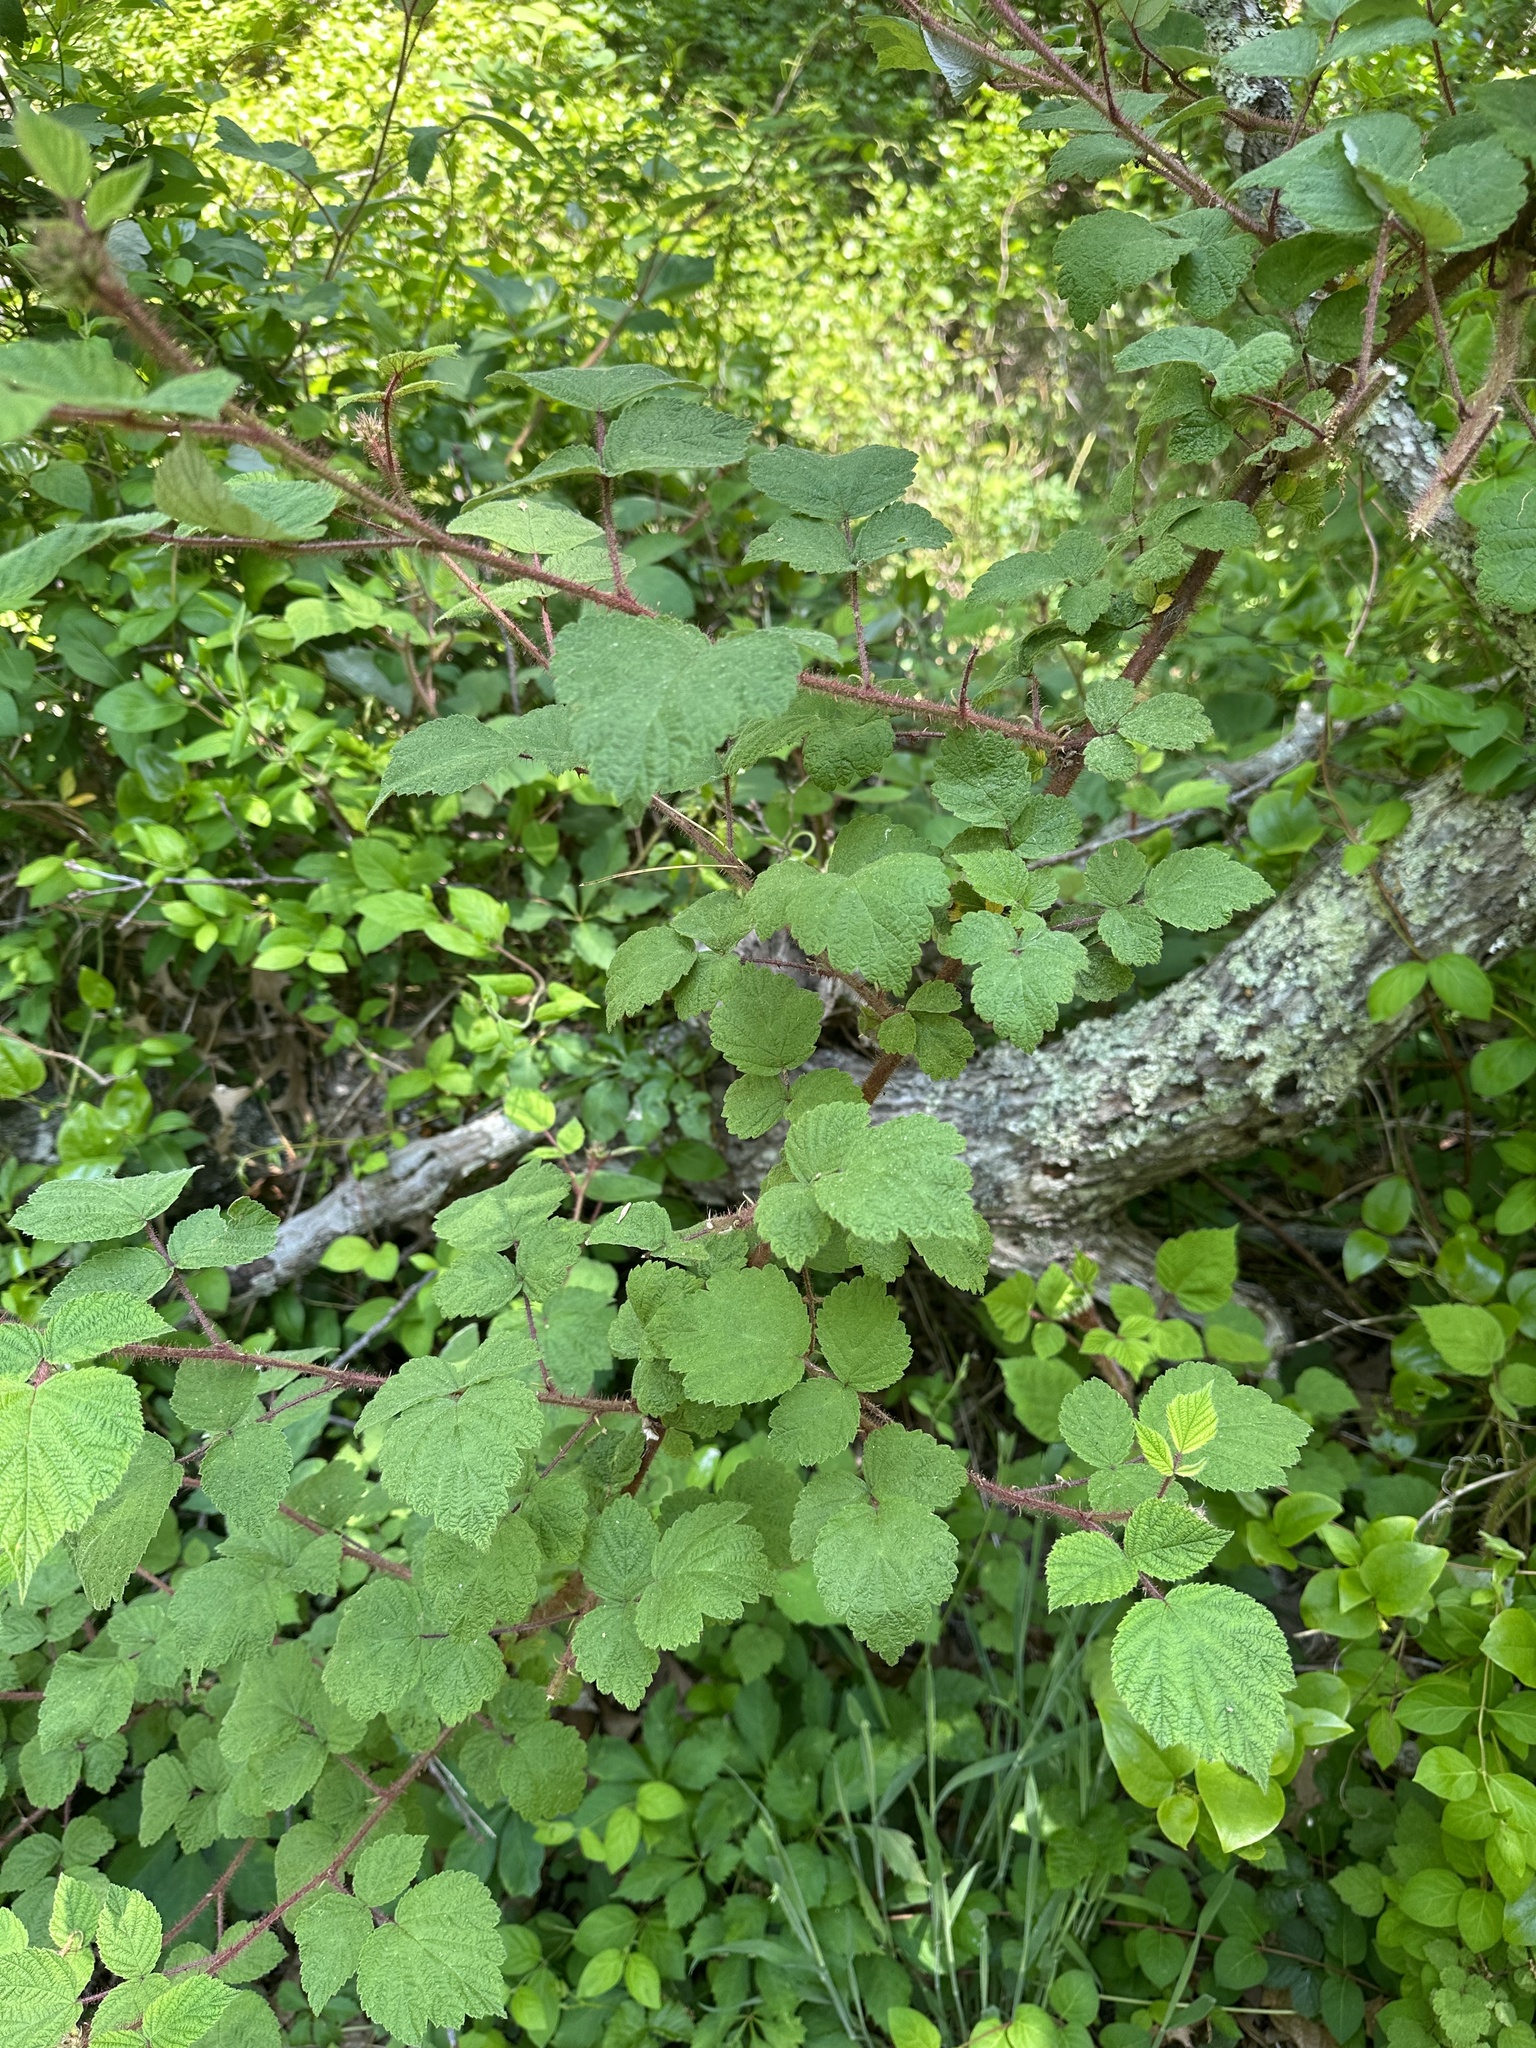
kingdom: Plantae
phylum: Tracheophyta
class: Magnoliopsida
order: Rosales
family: Rosaceae
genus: Rubus
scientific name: Rubus phoenicolasius
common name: Japanese wineberry
